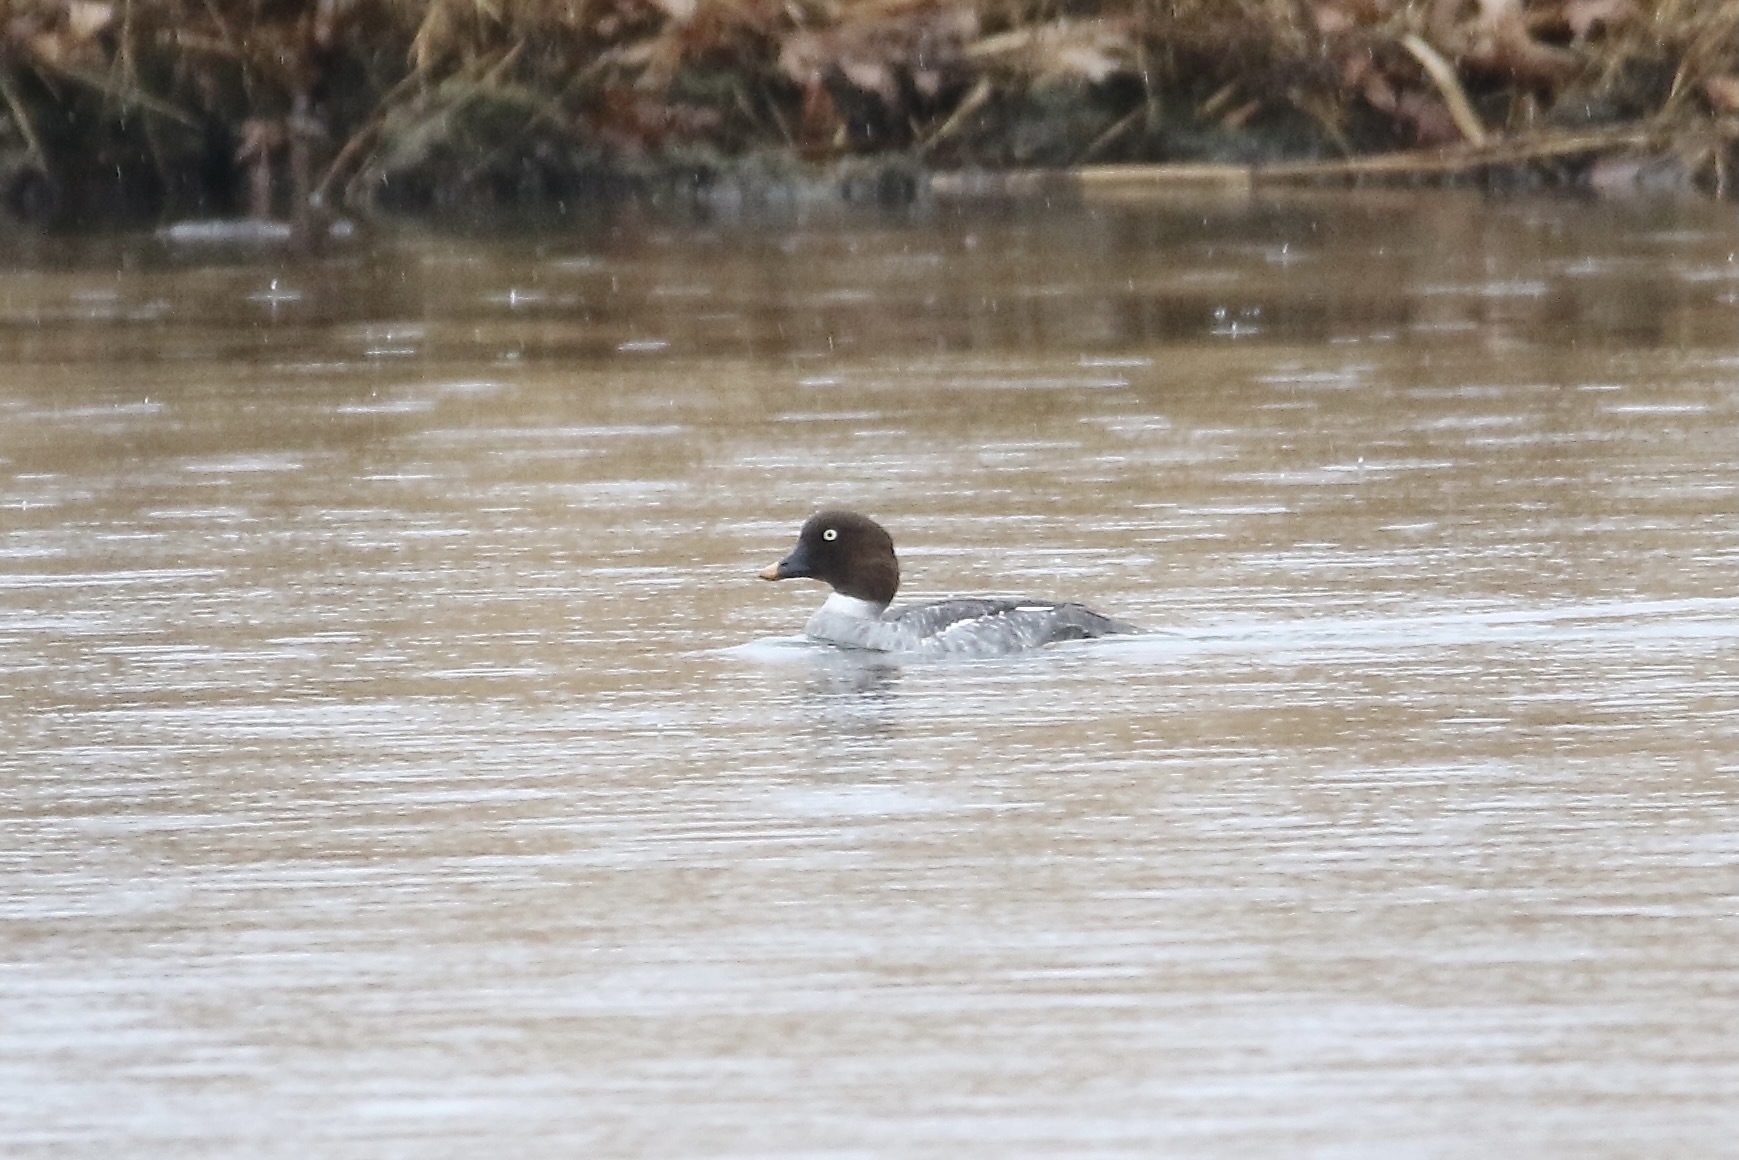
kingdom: Animalia
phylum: Chordata
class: Aves
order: Anseriformes
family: Anatidae
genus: Bucephala
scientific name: Bucephala clangula
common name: Common goldeneye
